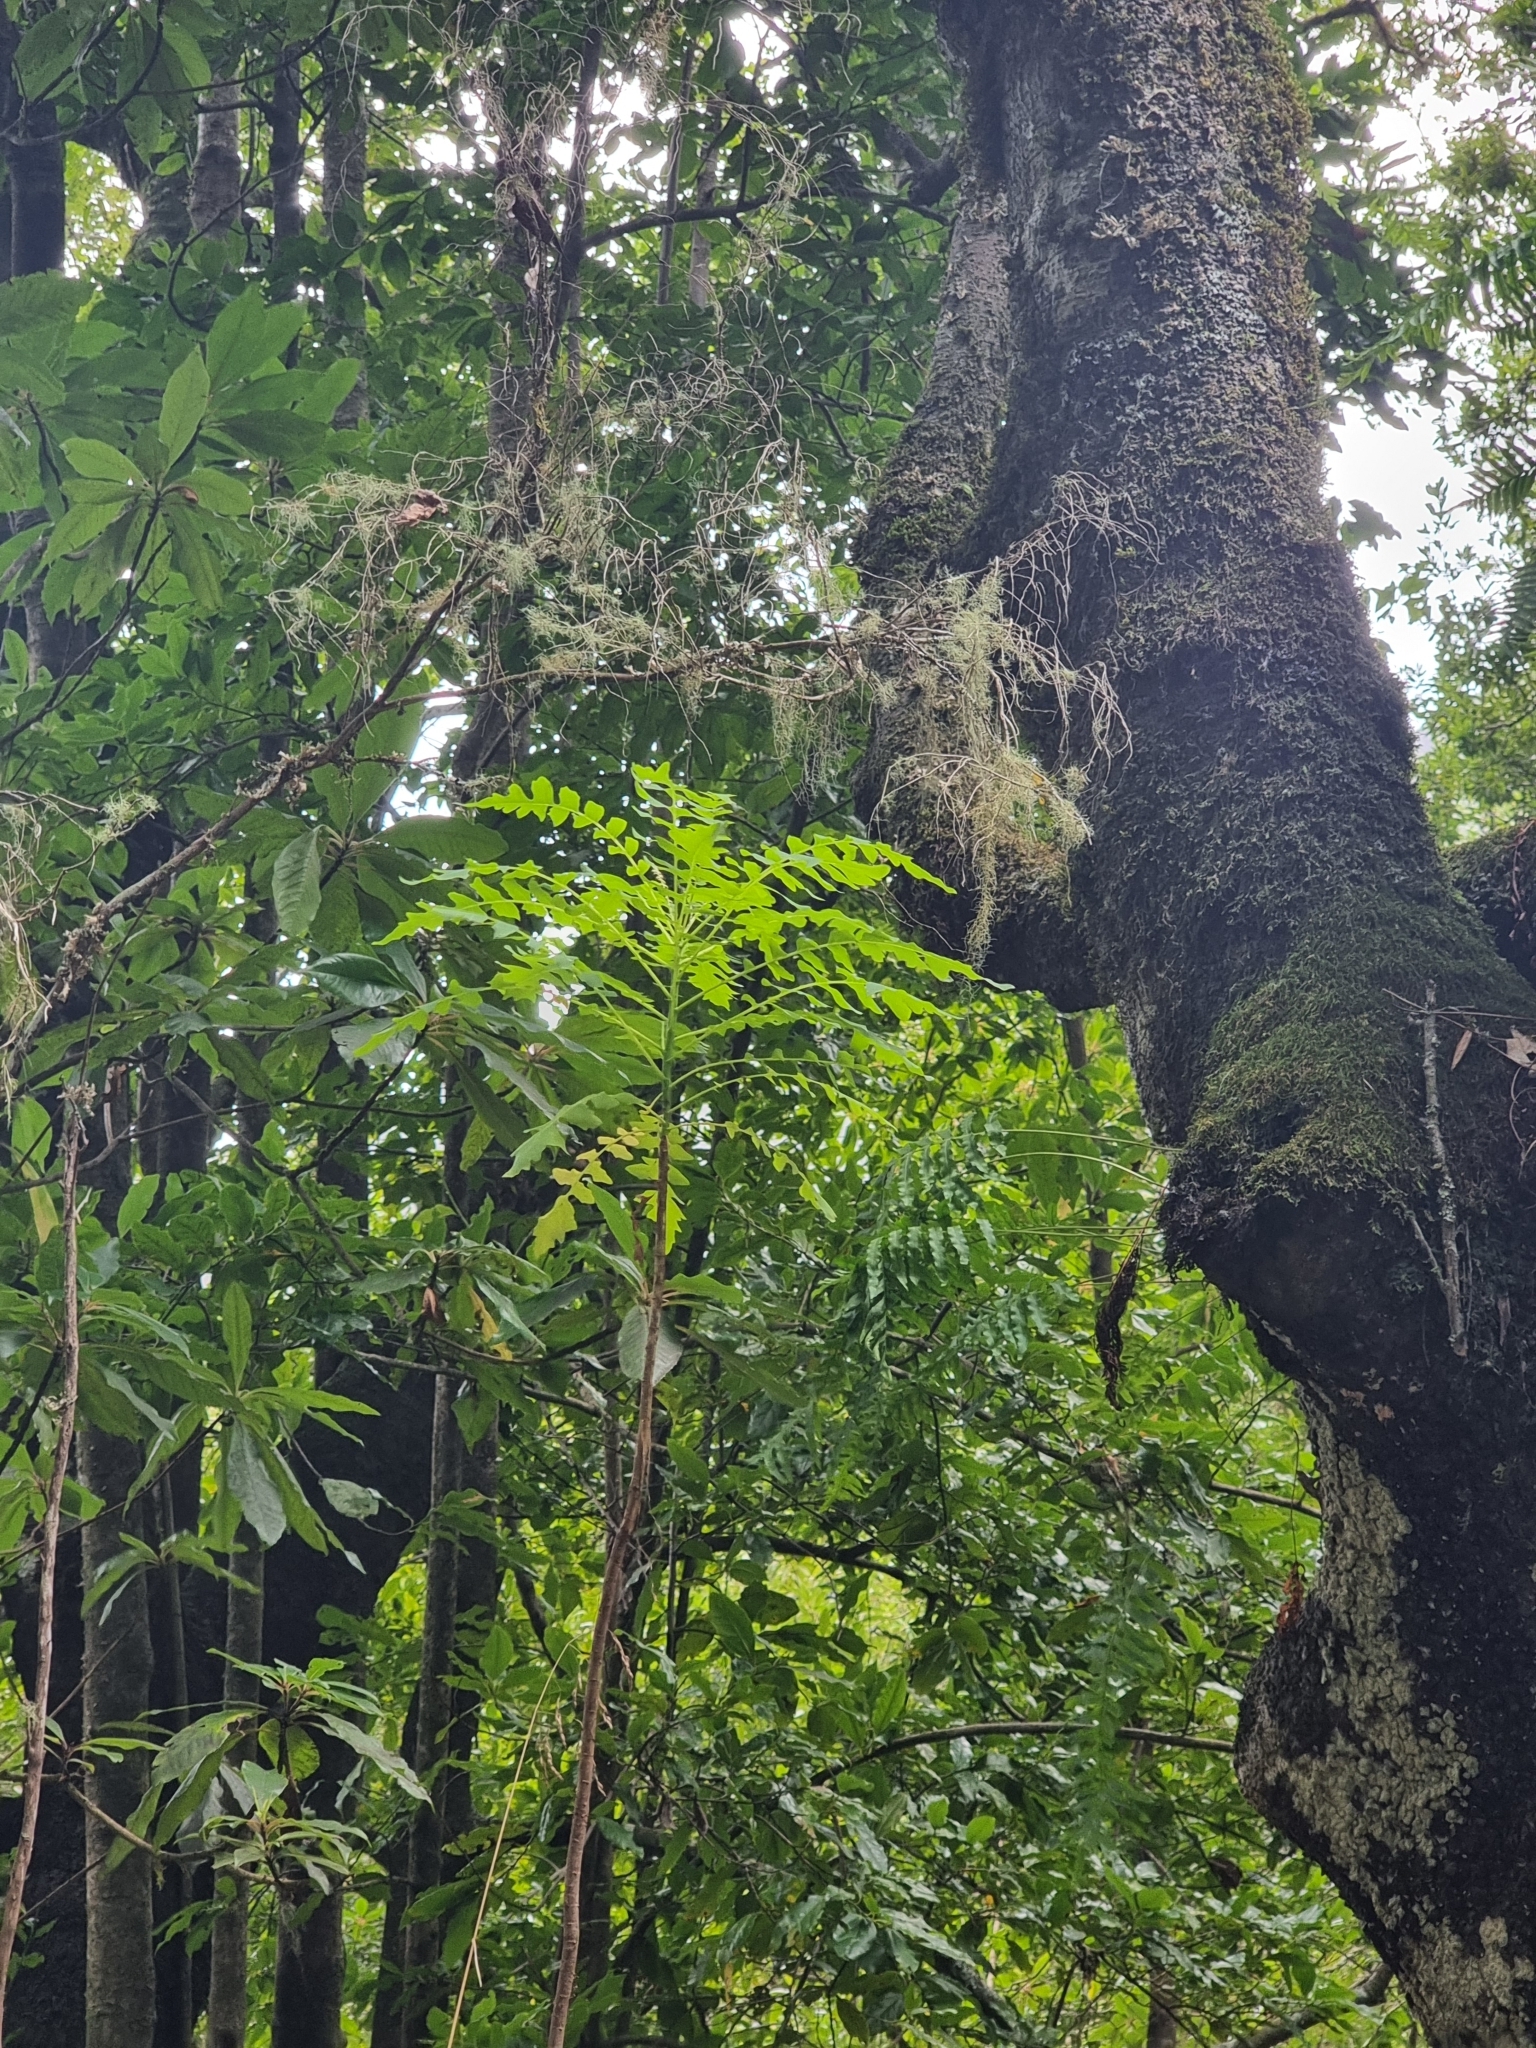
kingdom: Plantae
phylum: Tracheophyta
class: Magnoliopsida
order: Asterales
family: Asteraceae
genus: Sonchus
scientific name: Sonchus pinnatus
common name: Wing-leaved sow-thistle
